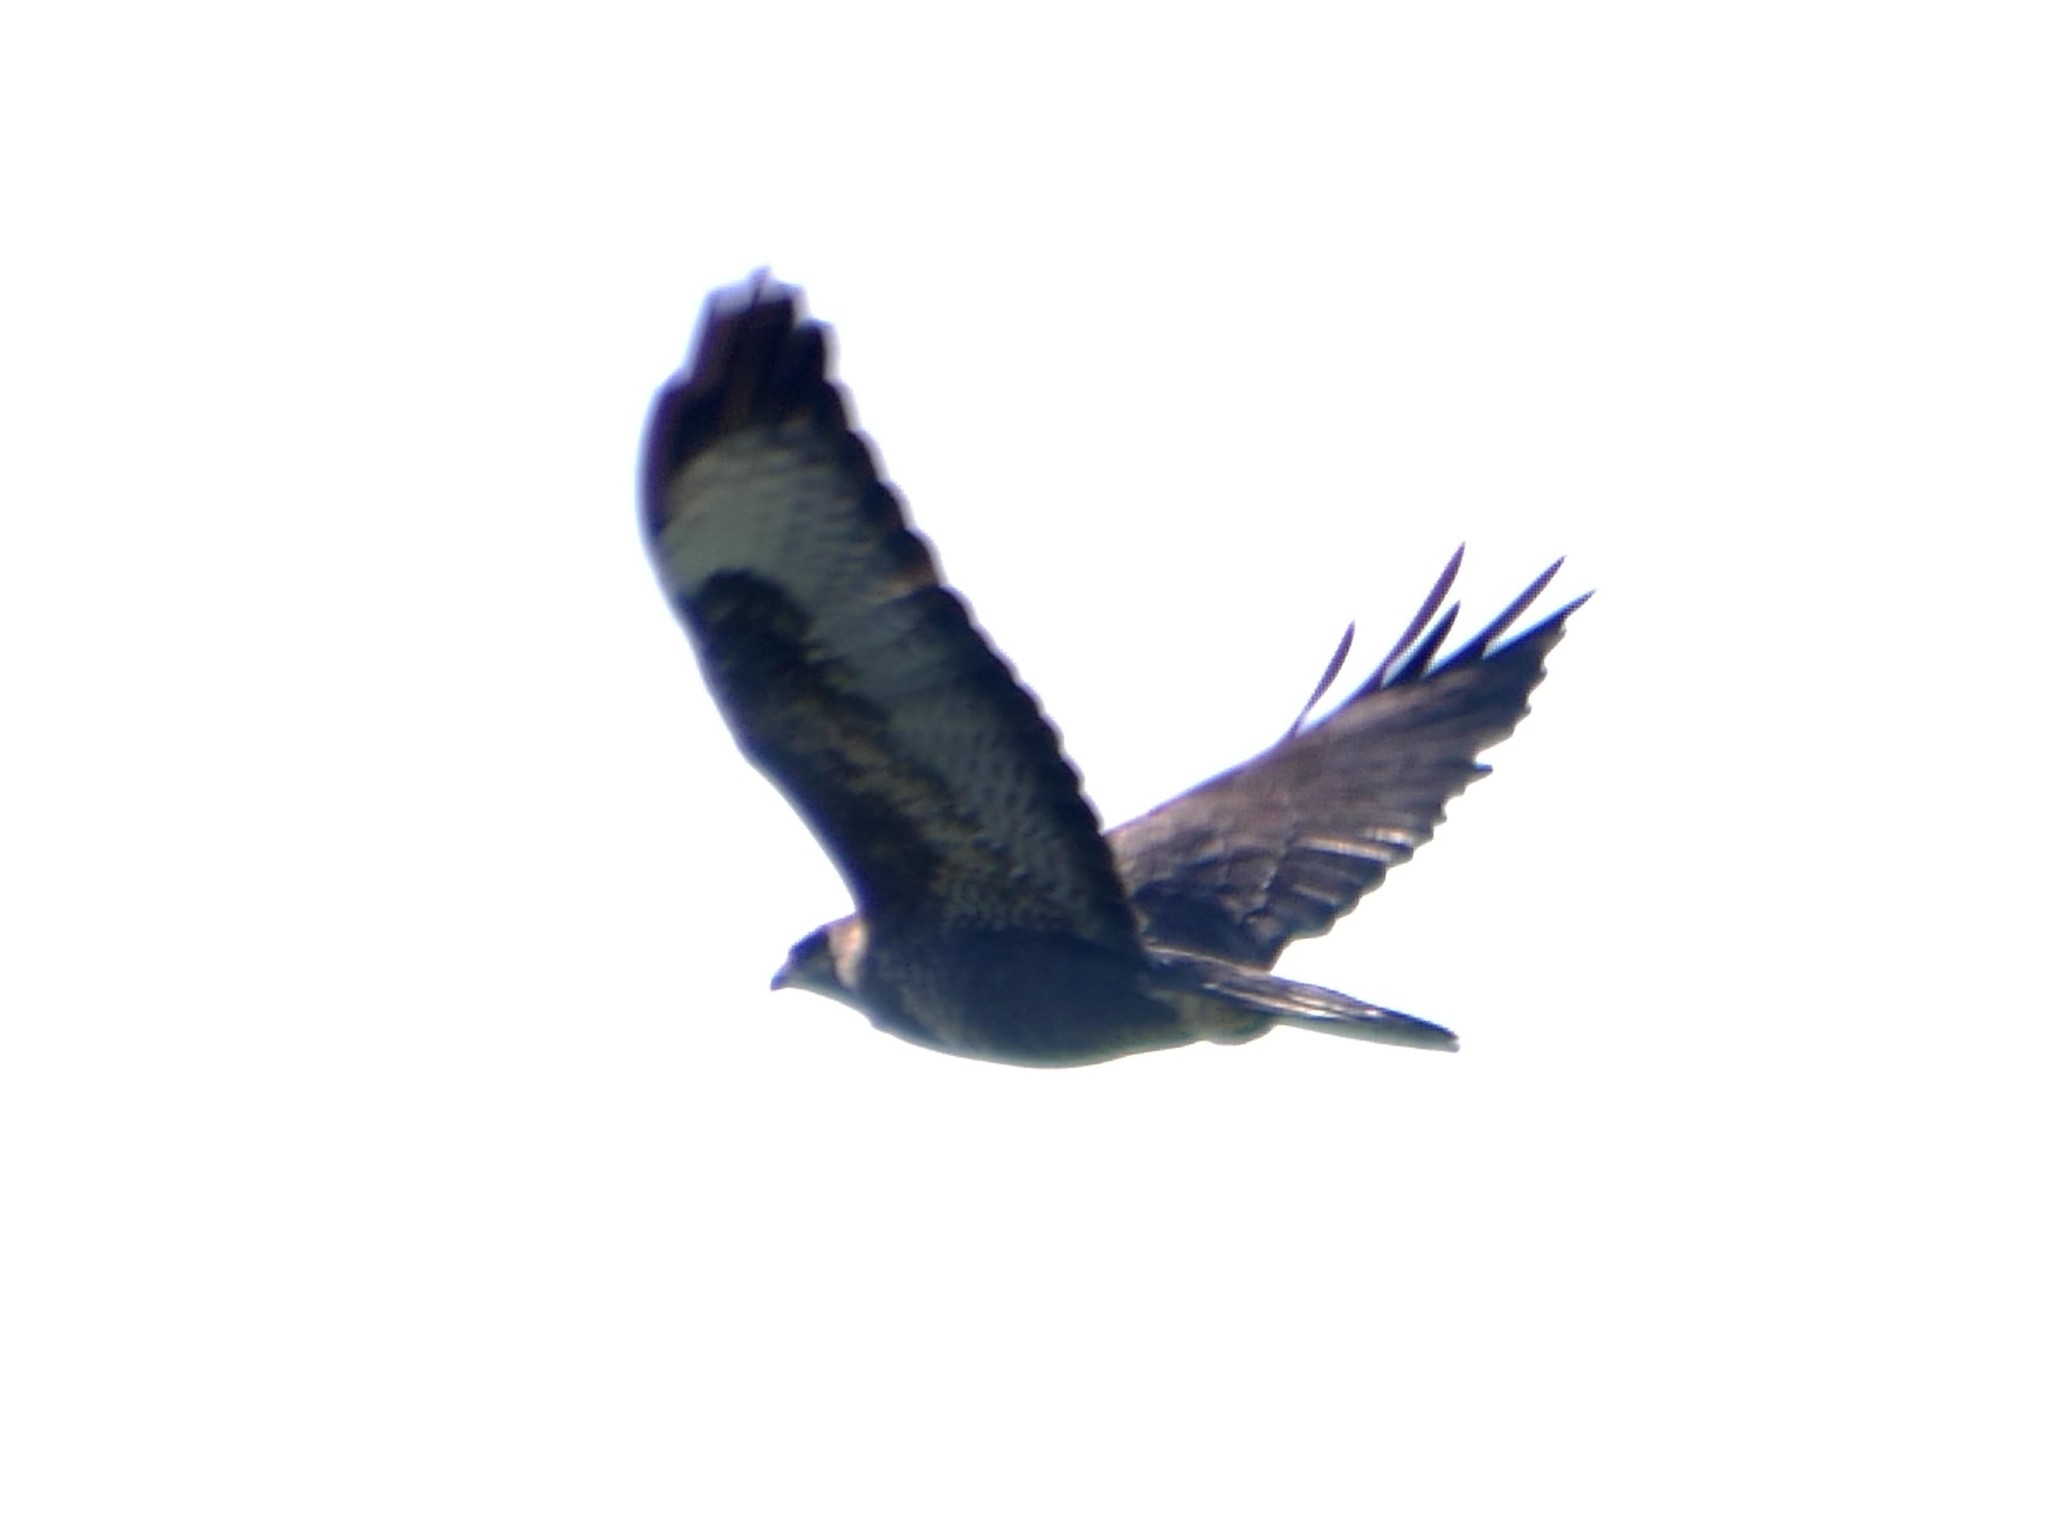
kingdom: Animalia
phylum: Chordata
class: Aves
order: Accipitriformes
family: Accipitridae
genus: Buteo
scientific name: Buteo buteo
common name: Common buzzard
